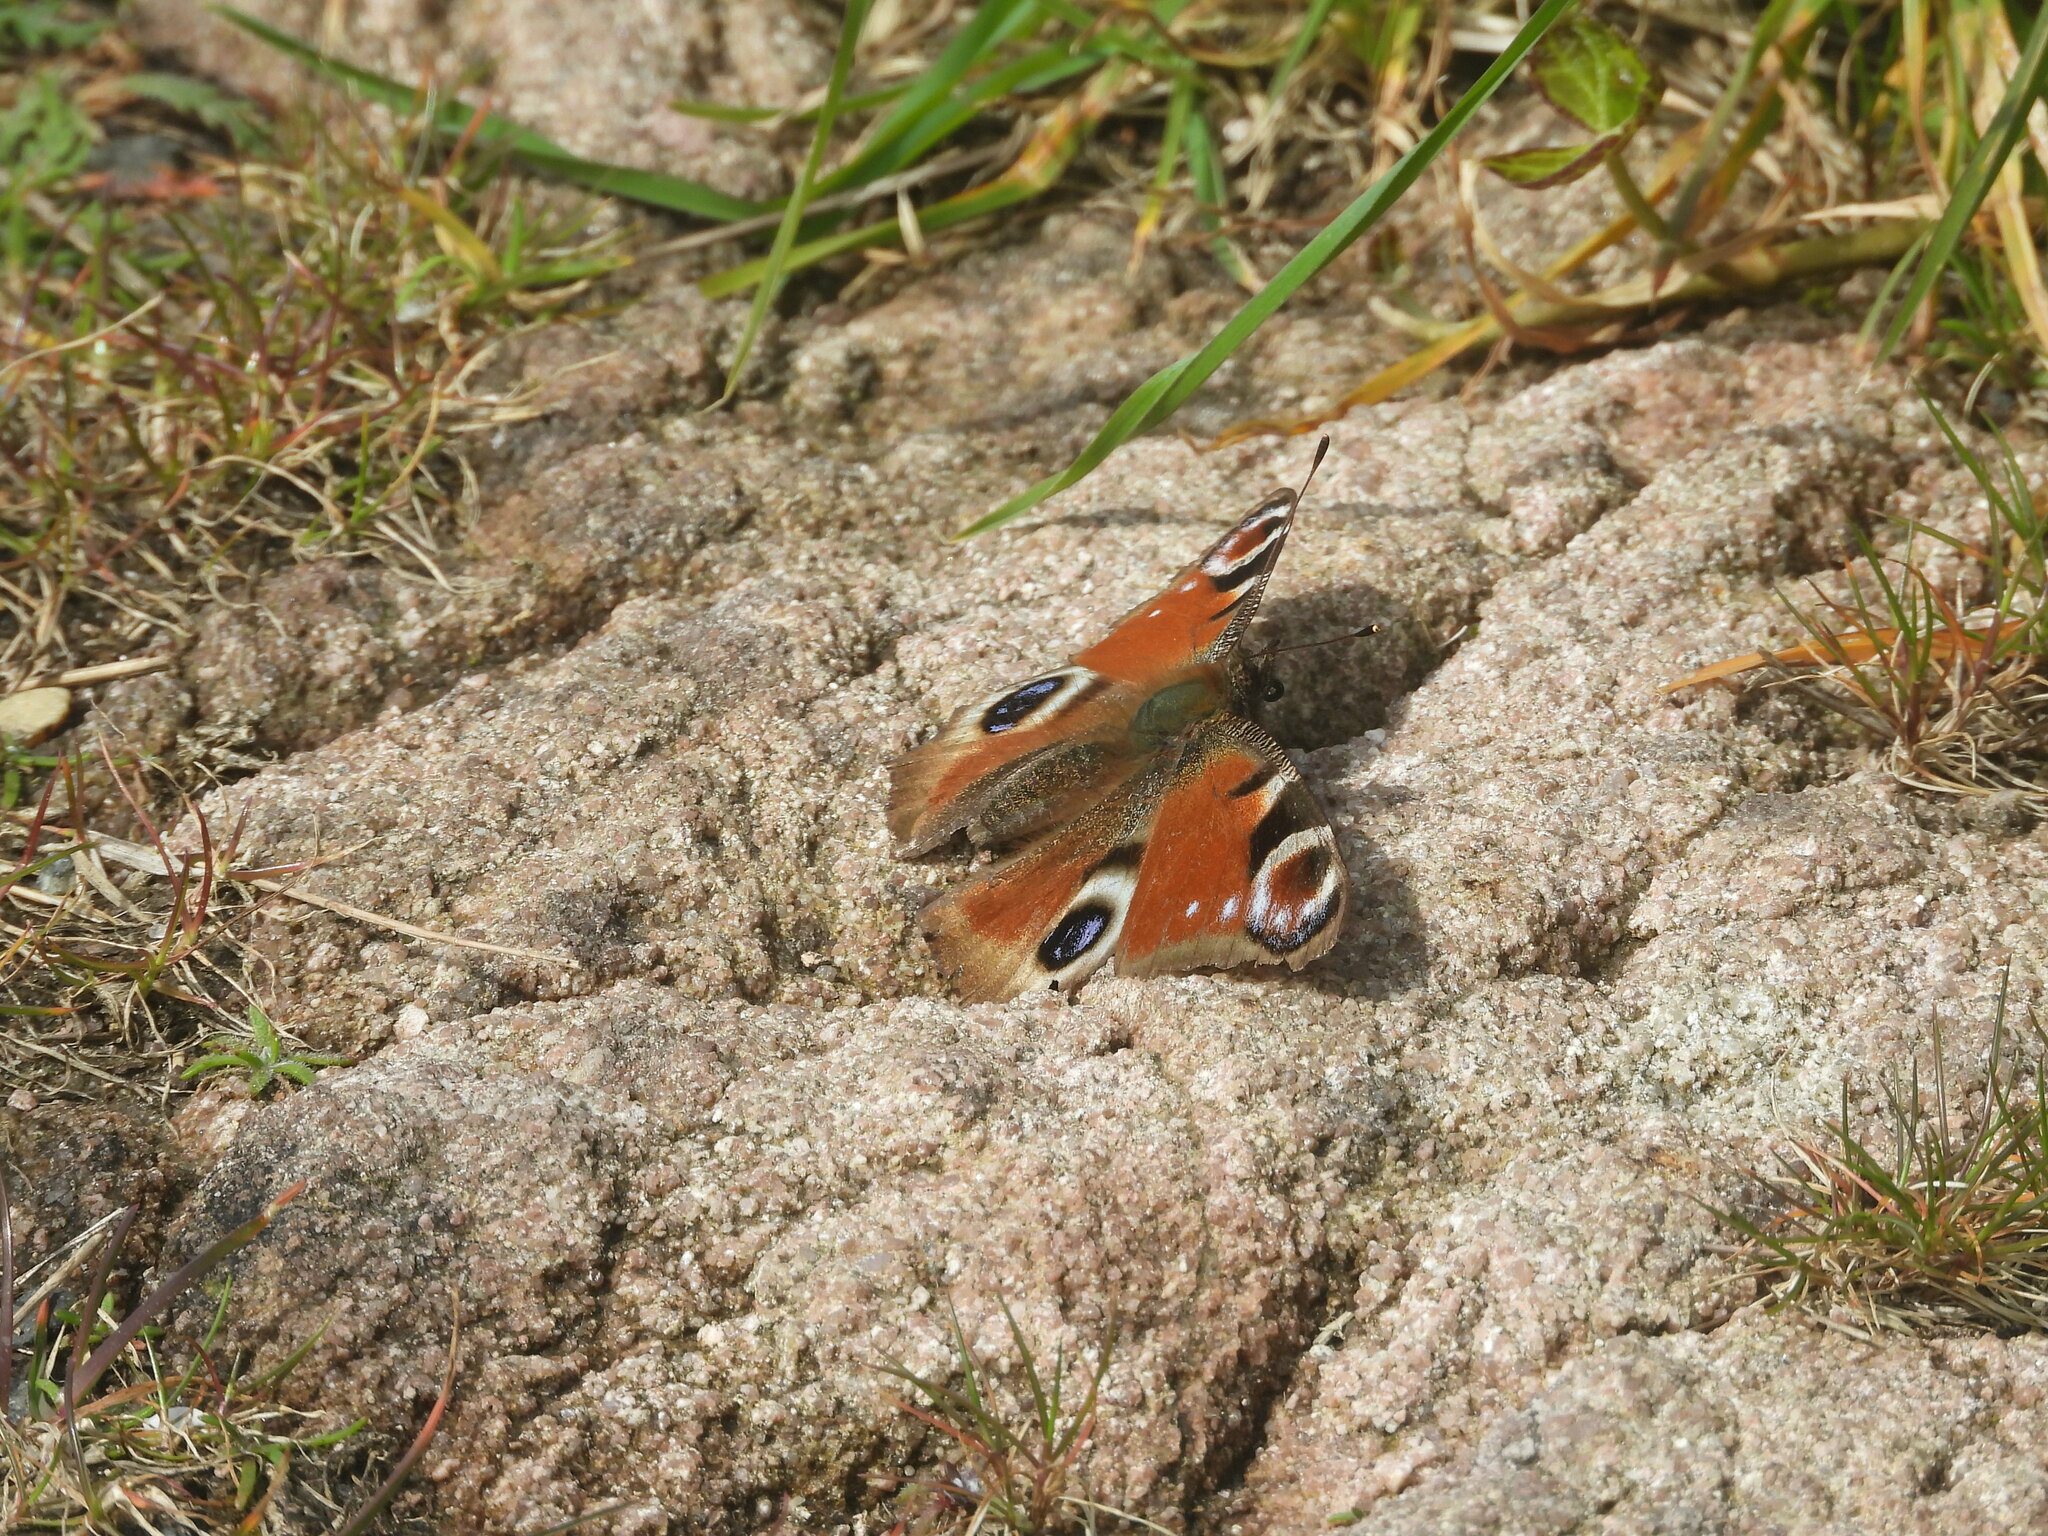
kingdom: Animalia
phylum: Arthropoda
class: Insecta
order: Lepidoptera
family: Nymphalidae
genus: Aglais
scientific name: Aglais io
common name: Peacock
